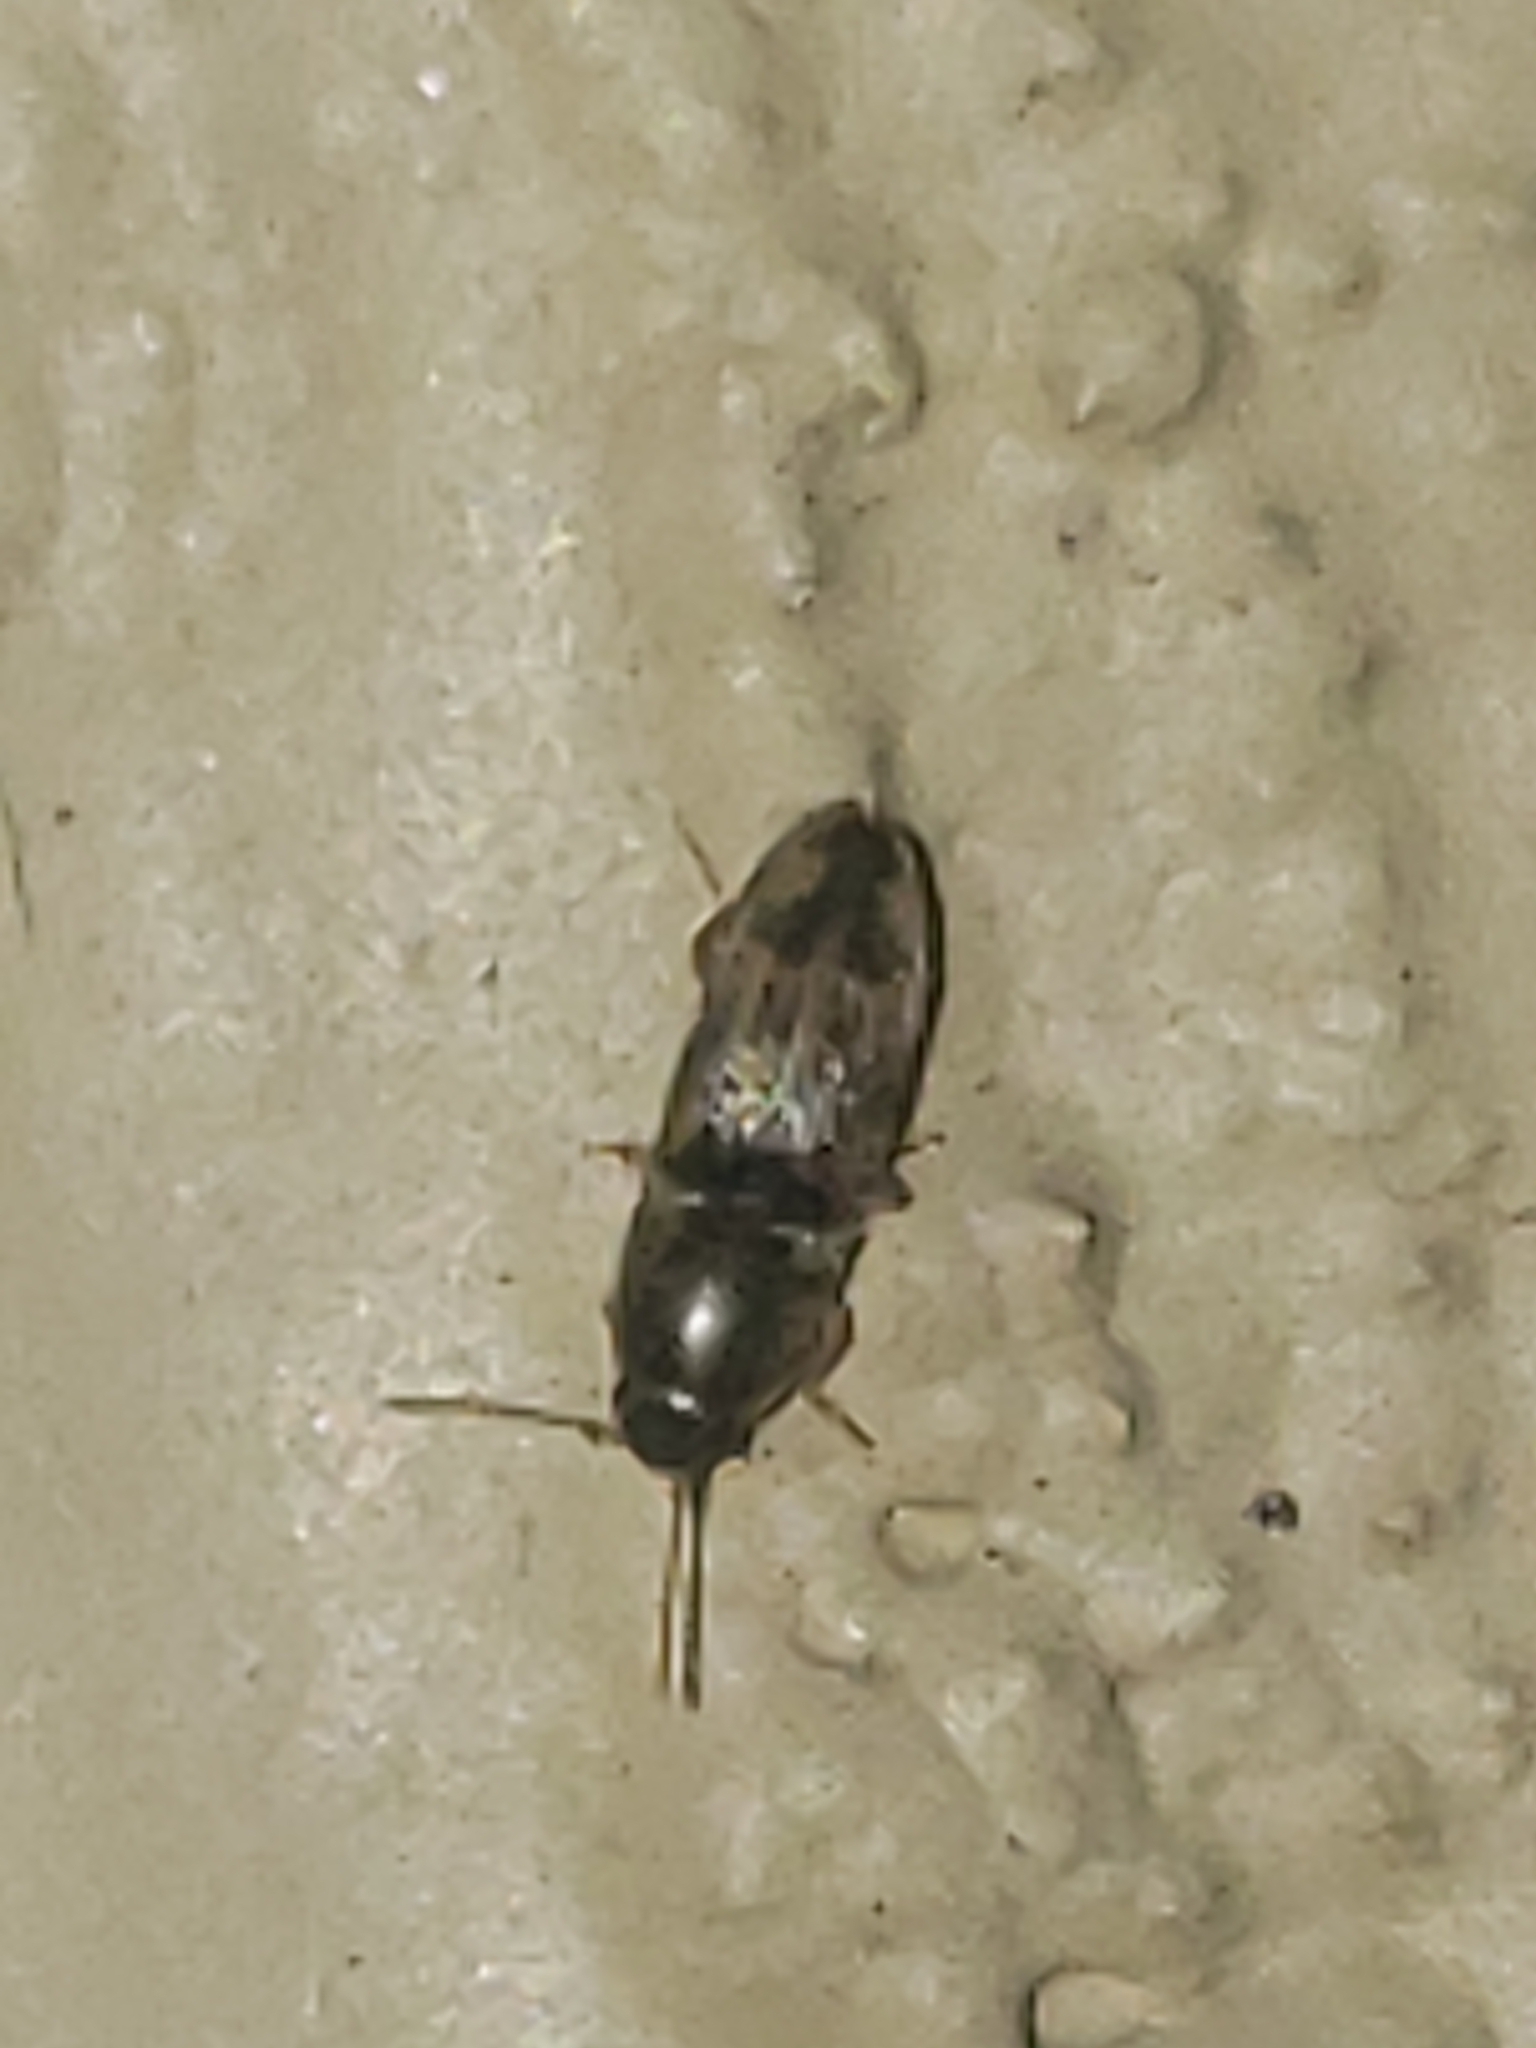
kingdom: Animalia
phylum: Arthropoda
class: Insecta
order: Coleoptera
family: Elateridae
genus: Monocrepidius
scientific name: Monocrepidius bellus
